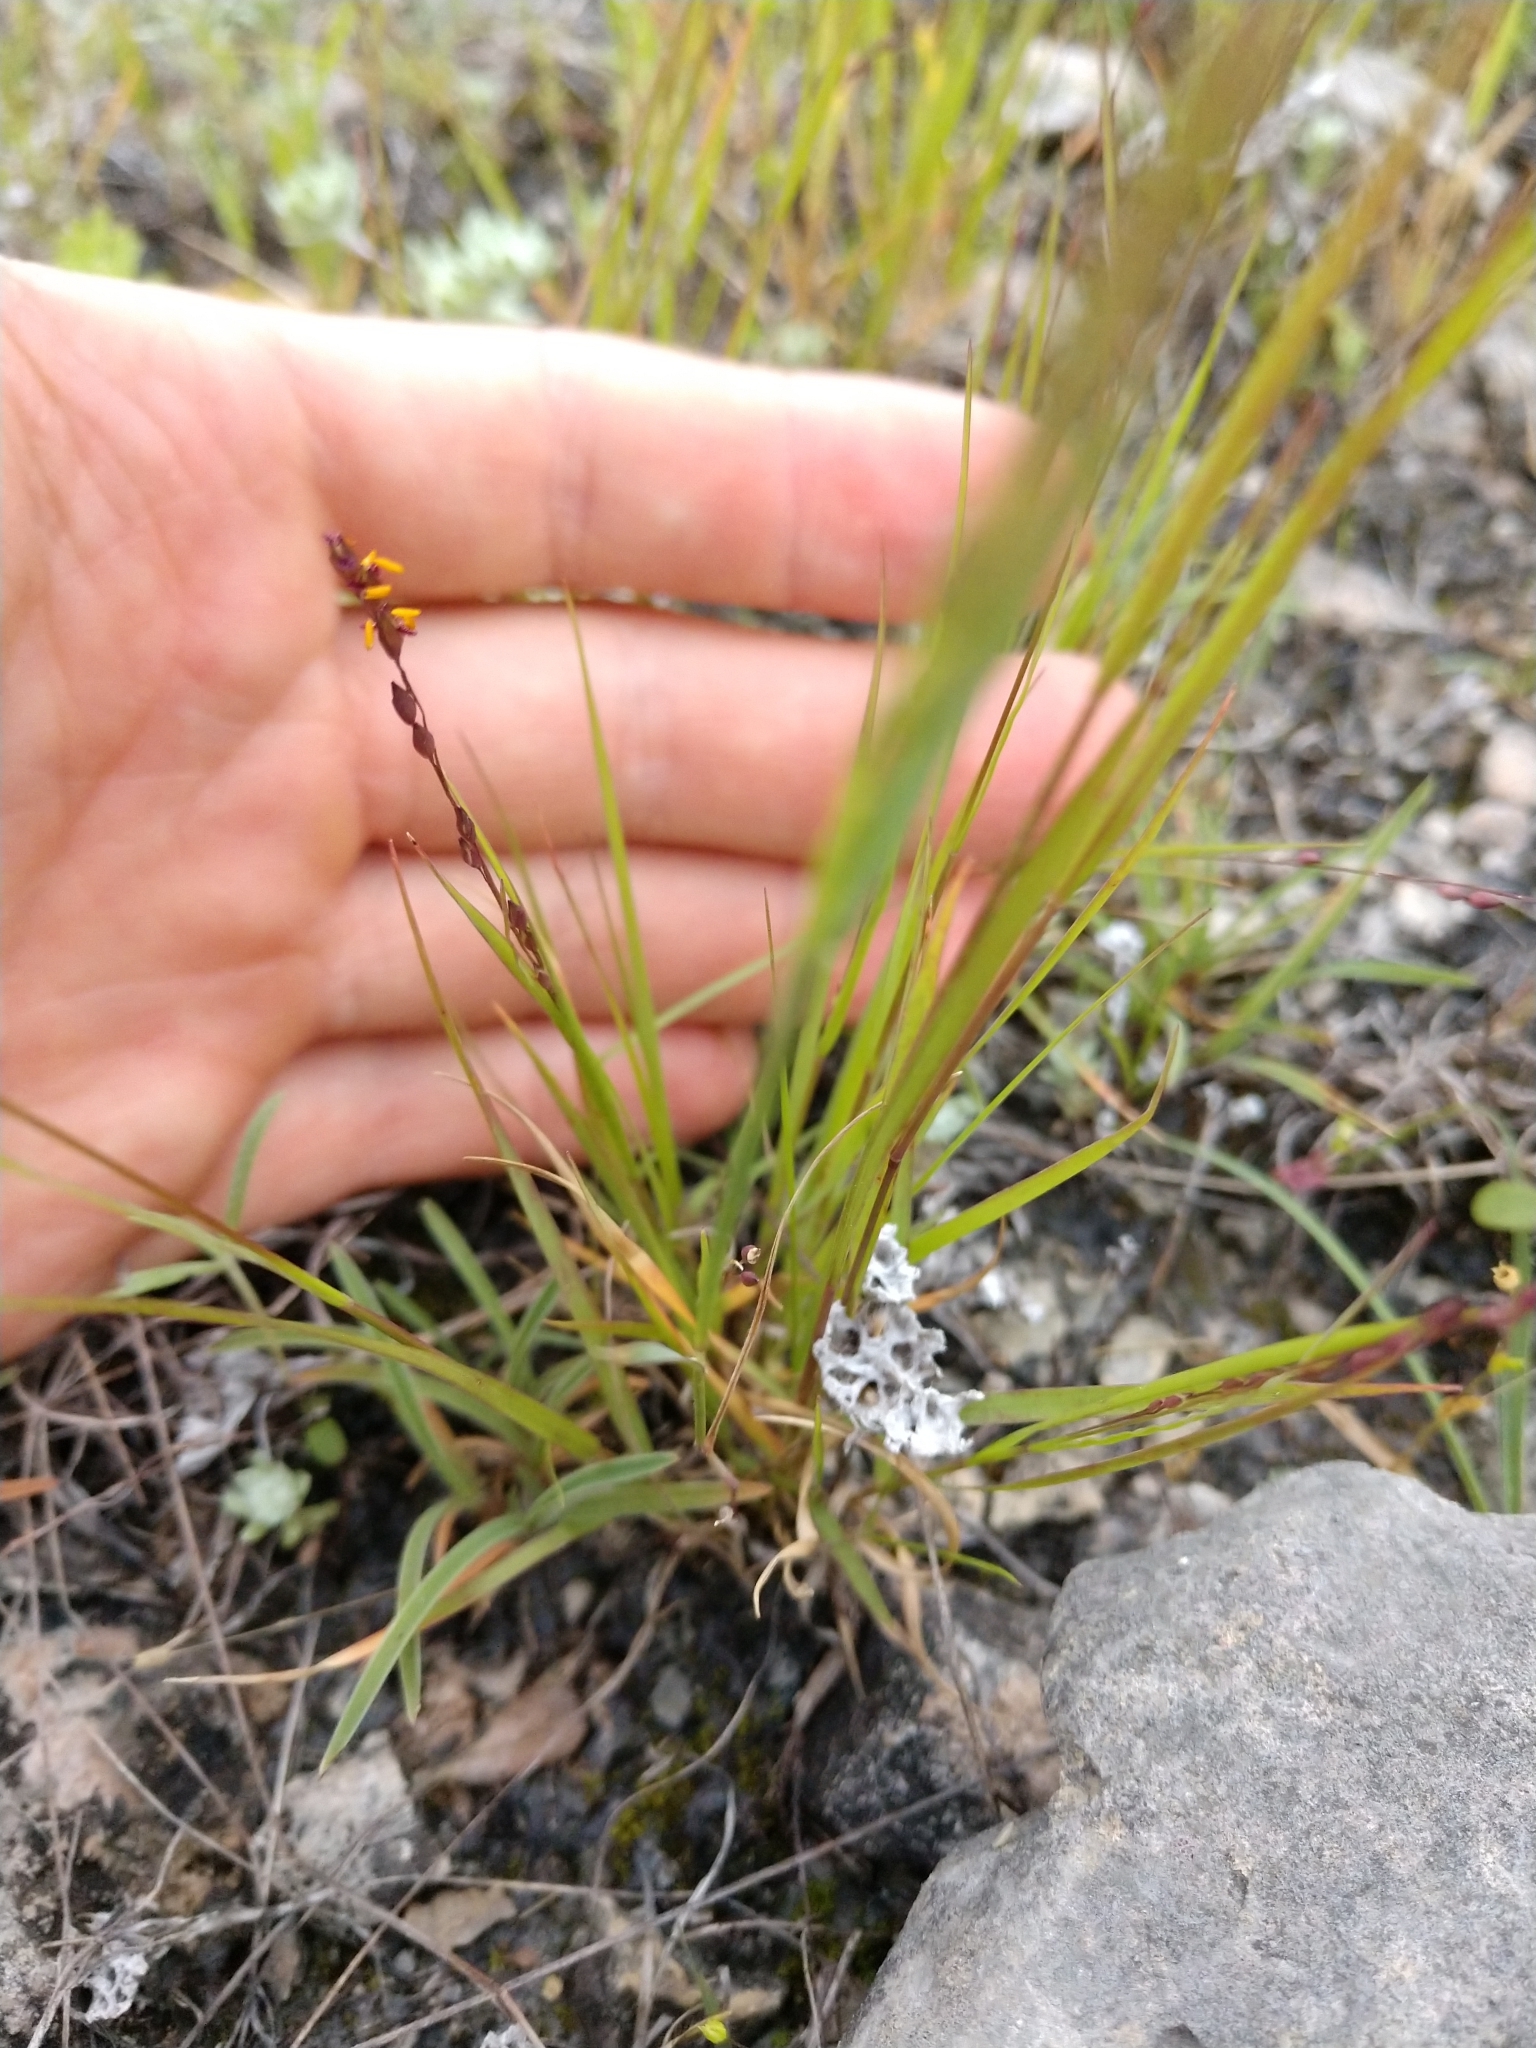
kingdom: Plantae
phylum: Tracheophyta
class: Liliopsida
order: Poales
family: Poaceae
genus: Panicum
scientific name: Panicum hallii
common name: Hall's witchgrass
